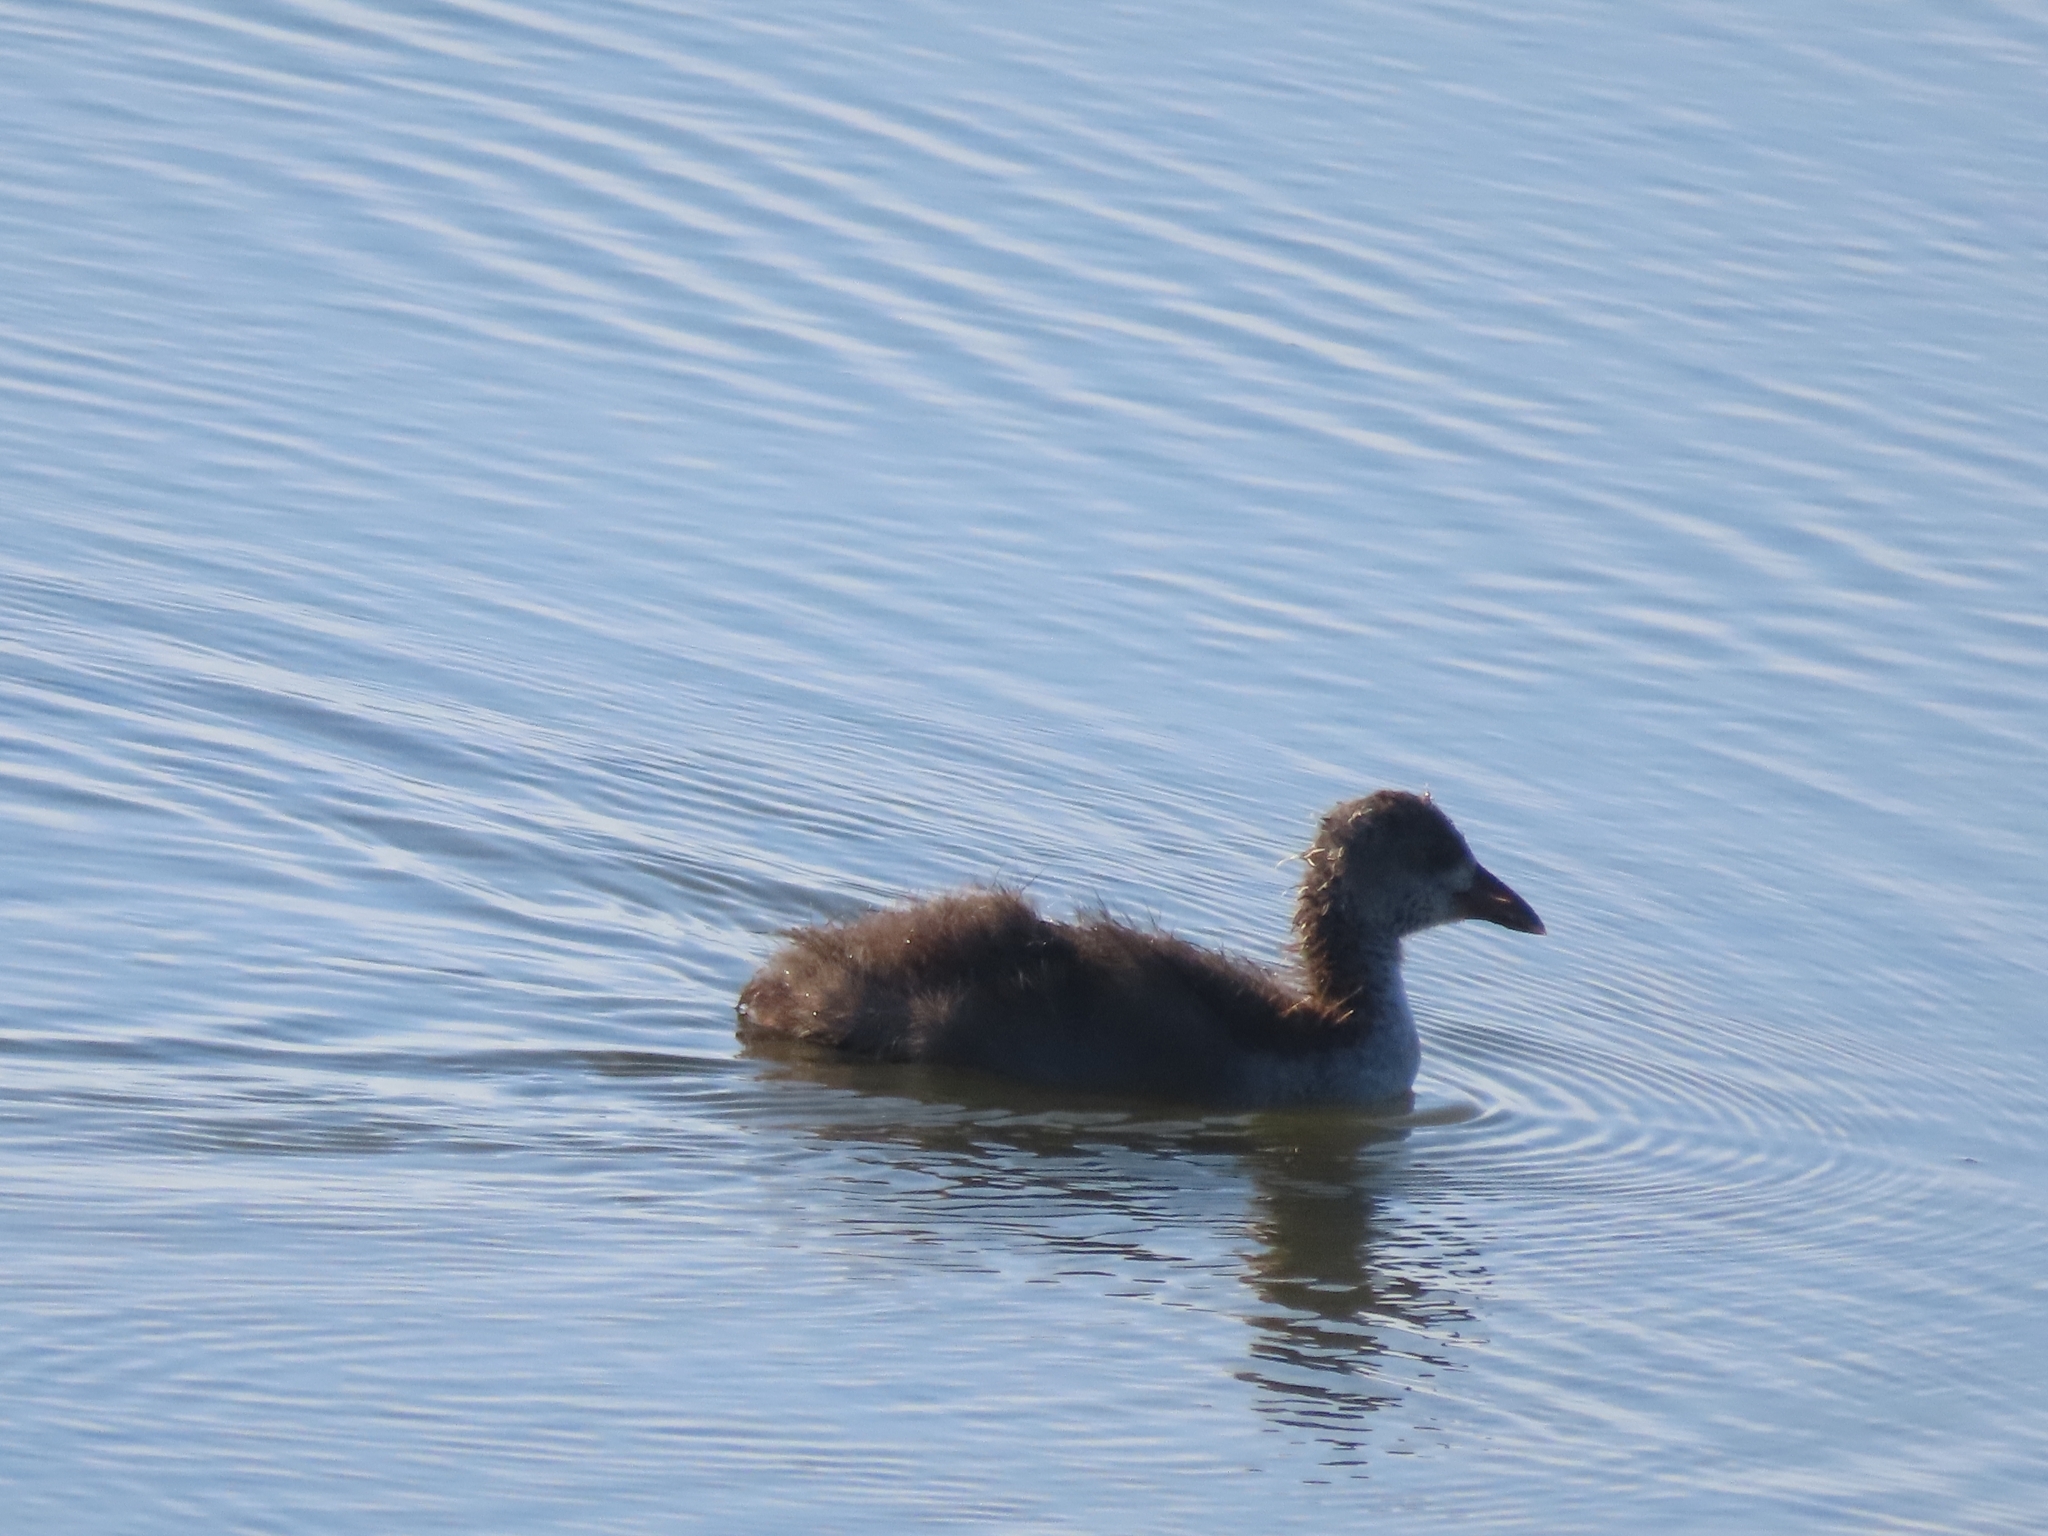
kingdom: Animalia
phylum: Chordata
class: Aves
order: Gruiformes
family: Rallidae
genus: Fulica
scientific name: Fulica americana
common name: American coot
